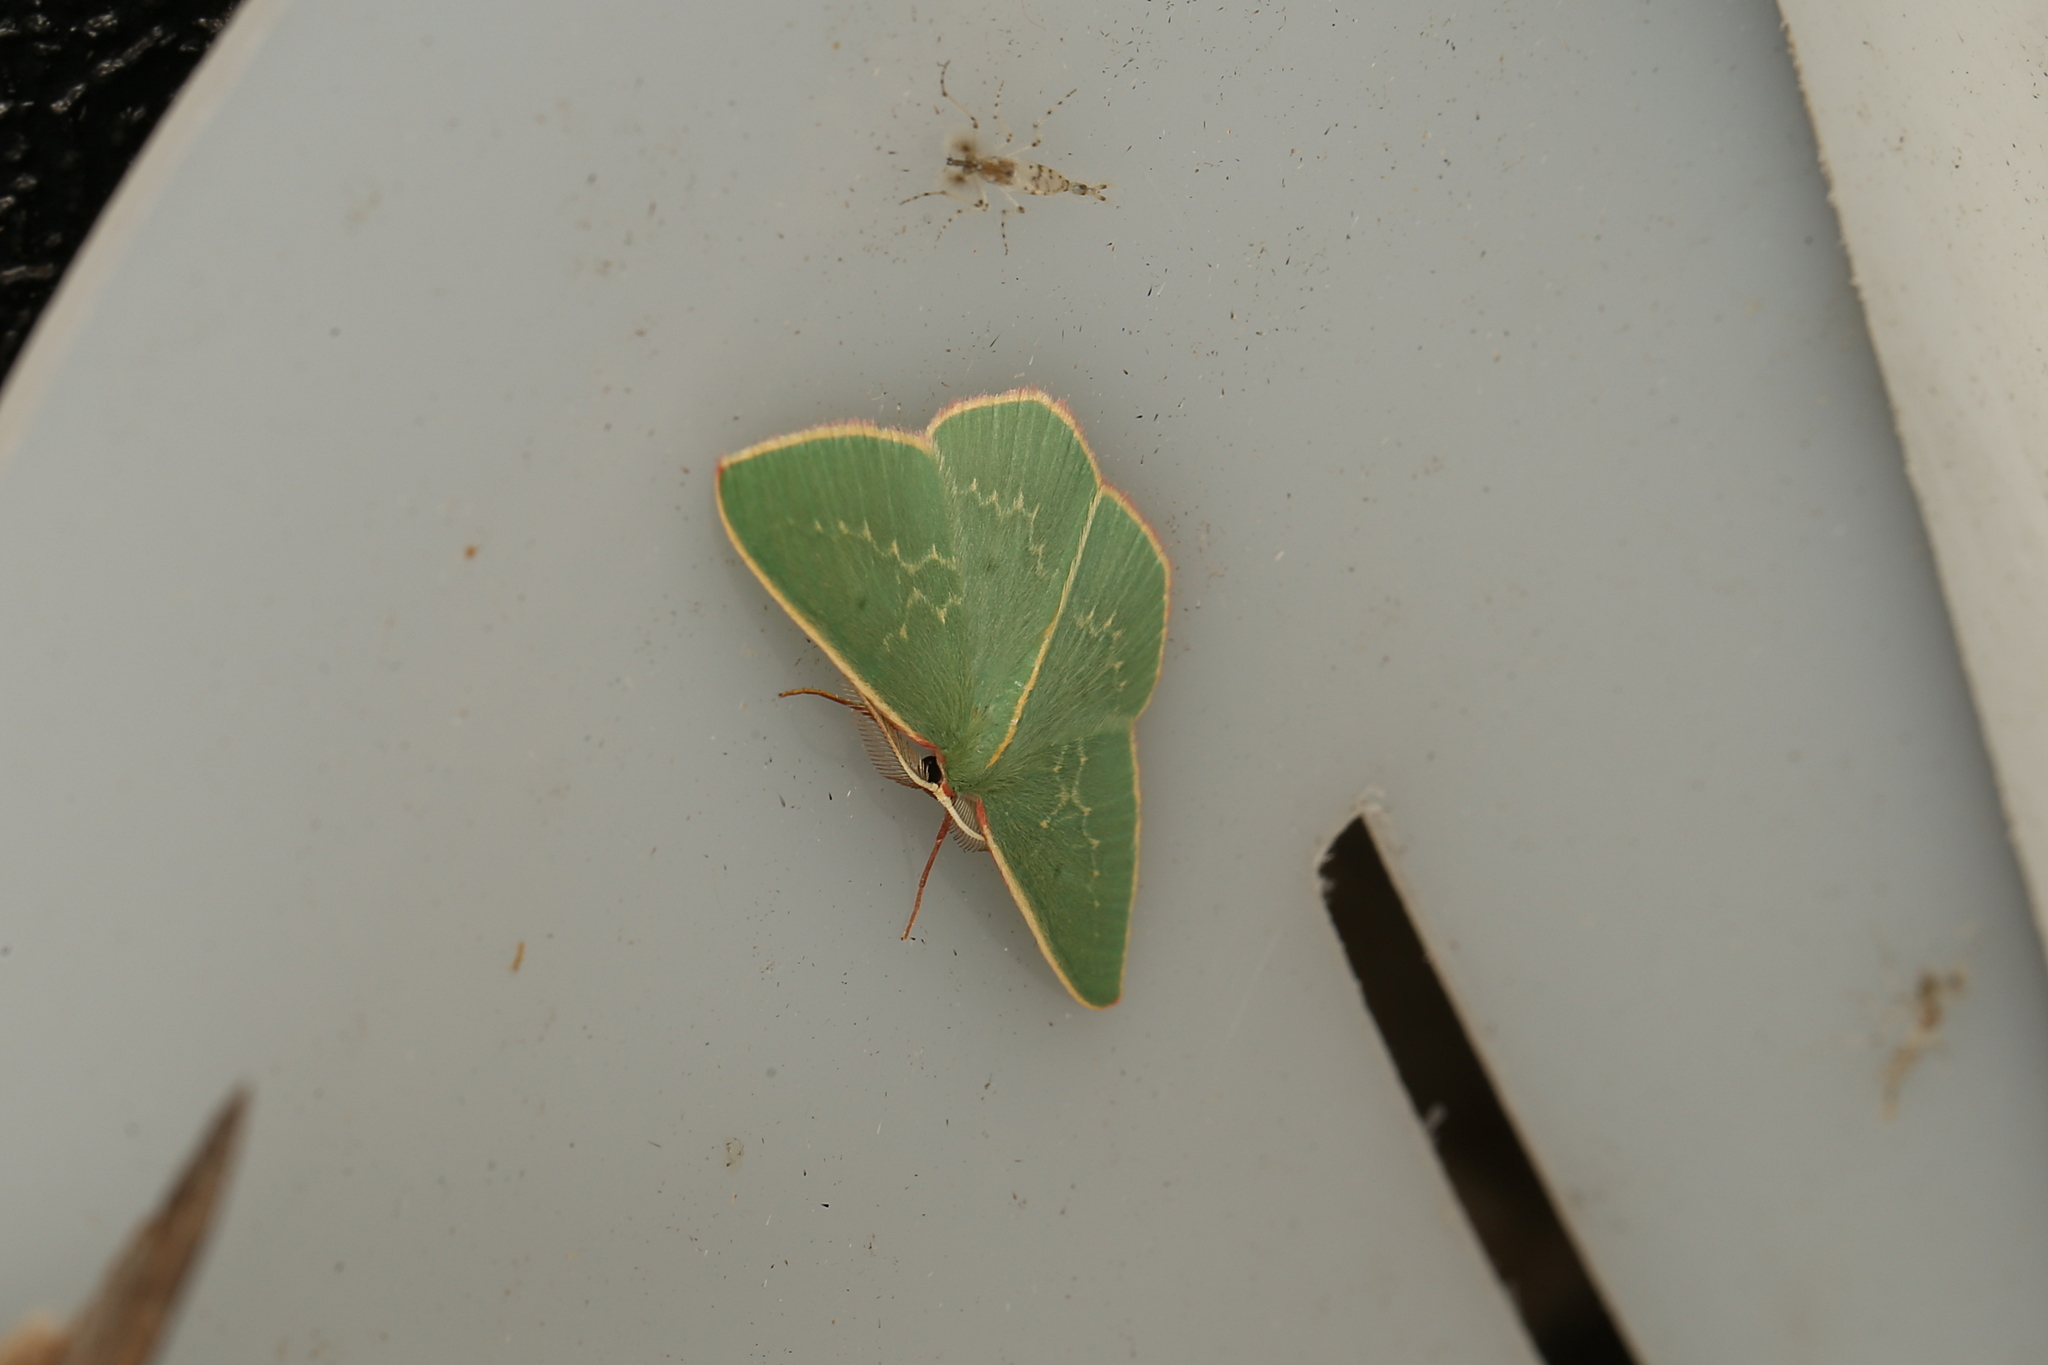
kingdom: Animalia
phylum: Arthropoda
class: Insecta
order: Lepidoptera
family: Geometridae
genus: Chlorocoma
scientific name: Chlorocoma dichloraria
